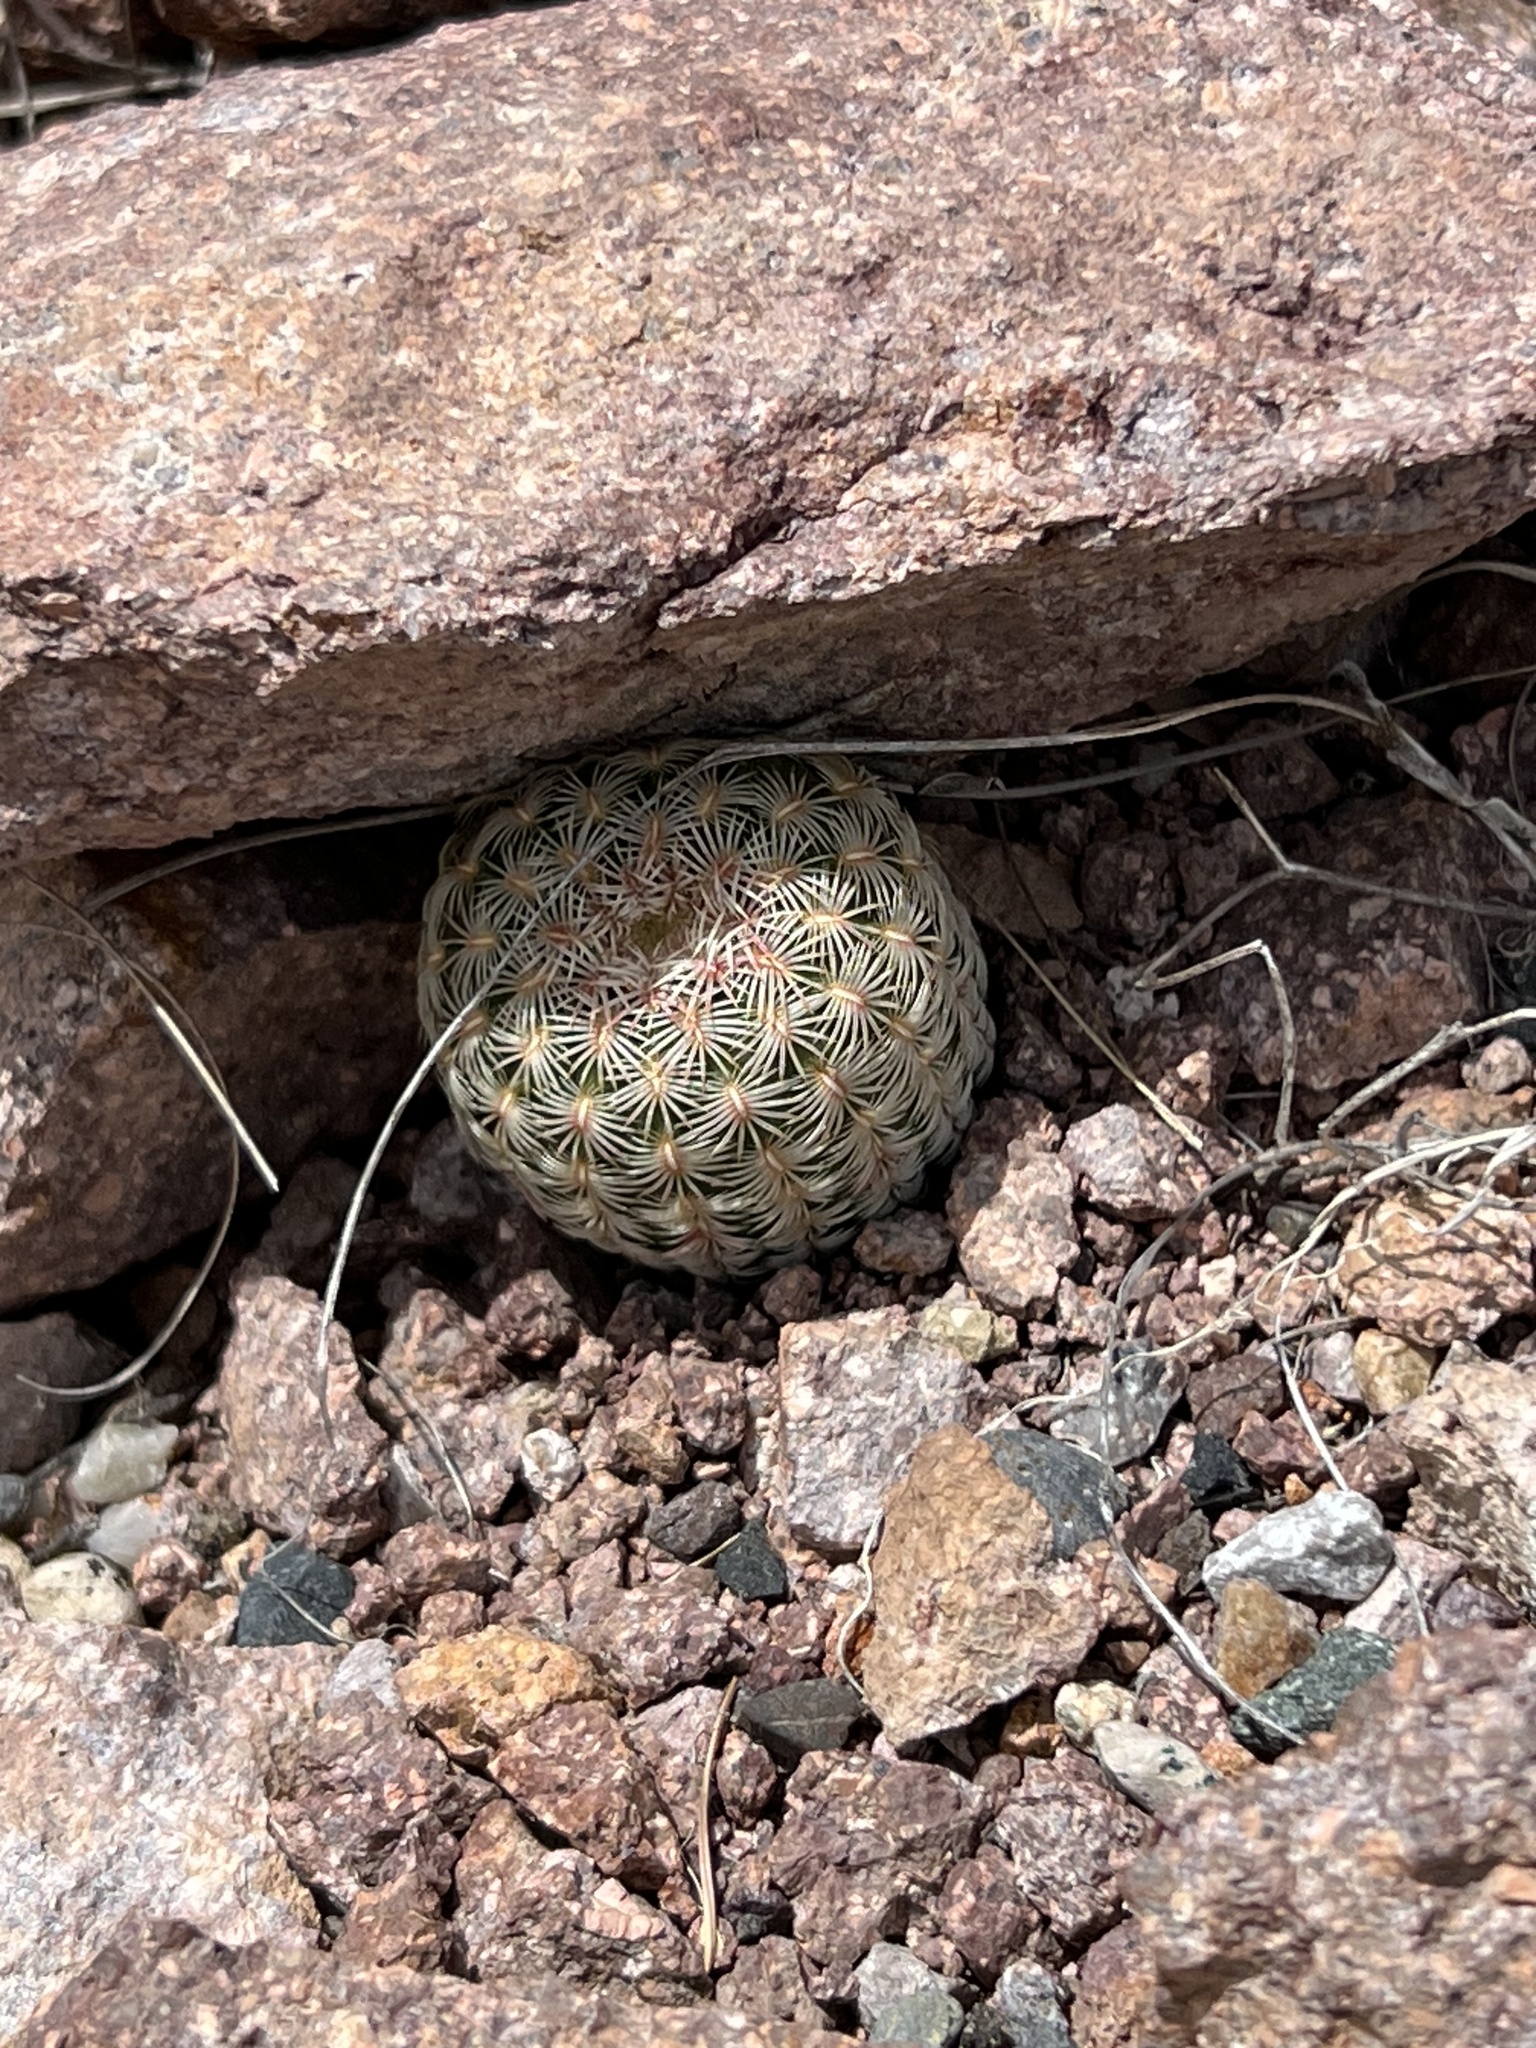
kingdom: Plantae
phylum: Tracheophyta
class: Magnoliopsida
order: Caryophyllales
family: Cactaceae
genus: Echinocereus
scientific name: Echinocereus rigidissimus
